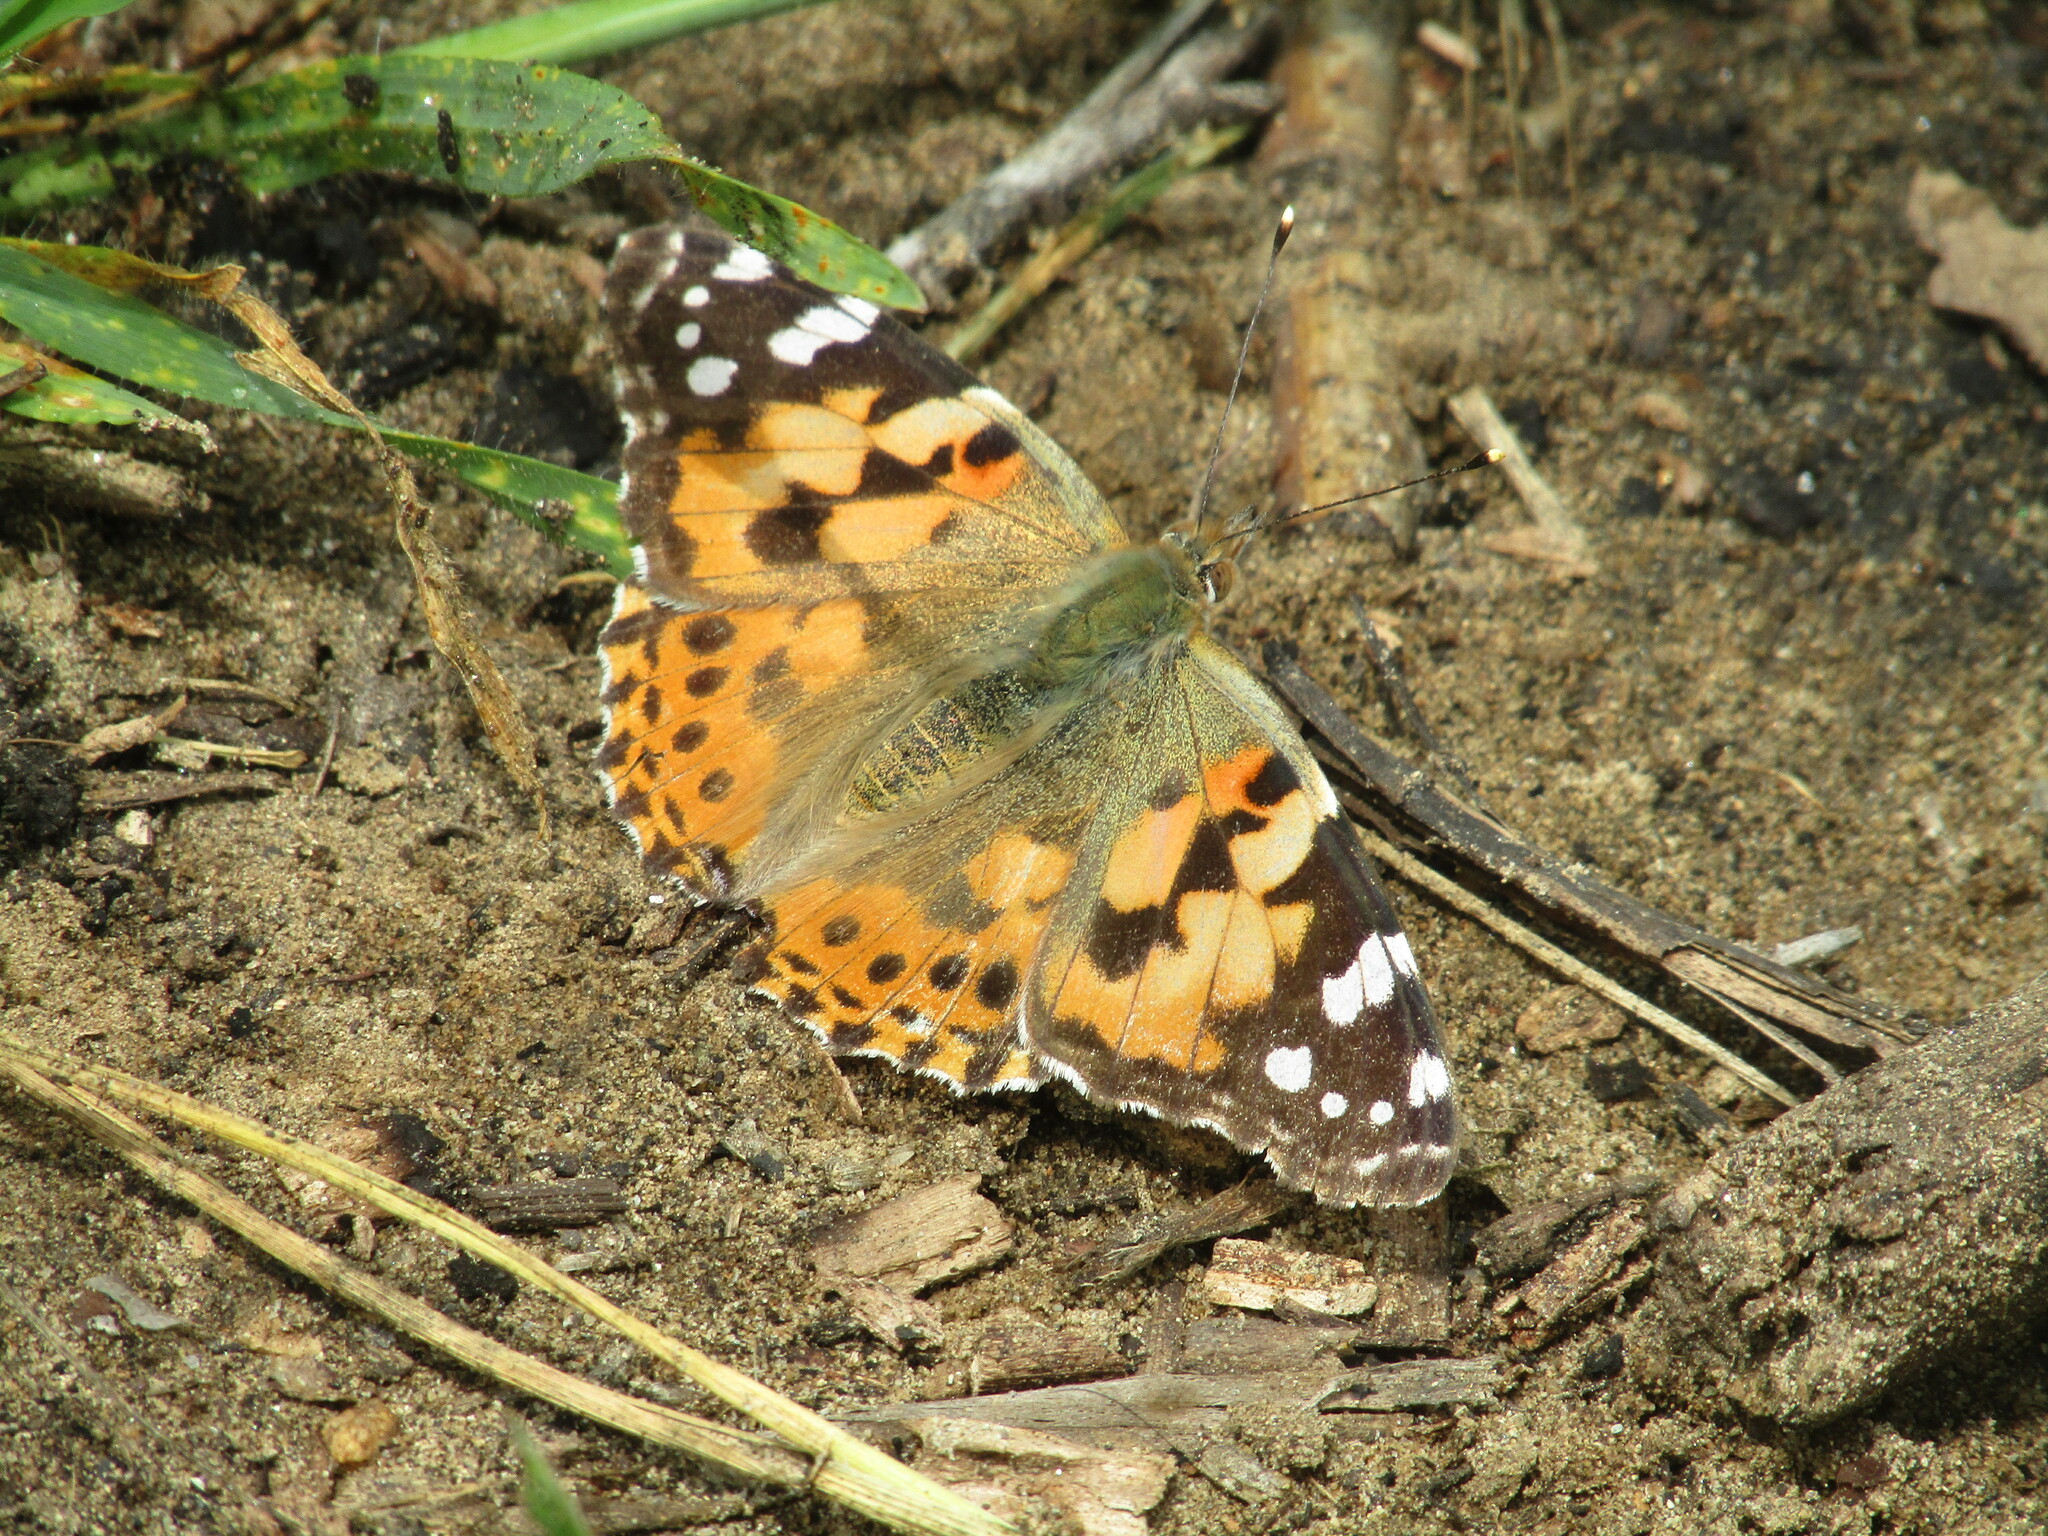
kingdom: Animalia
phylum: Arthropoda
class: Insecta
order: Lepidoptera
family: Nymphalidae
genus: Vanessa
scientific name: Vanessa cardui
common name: Painted lady
